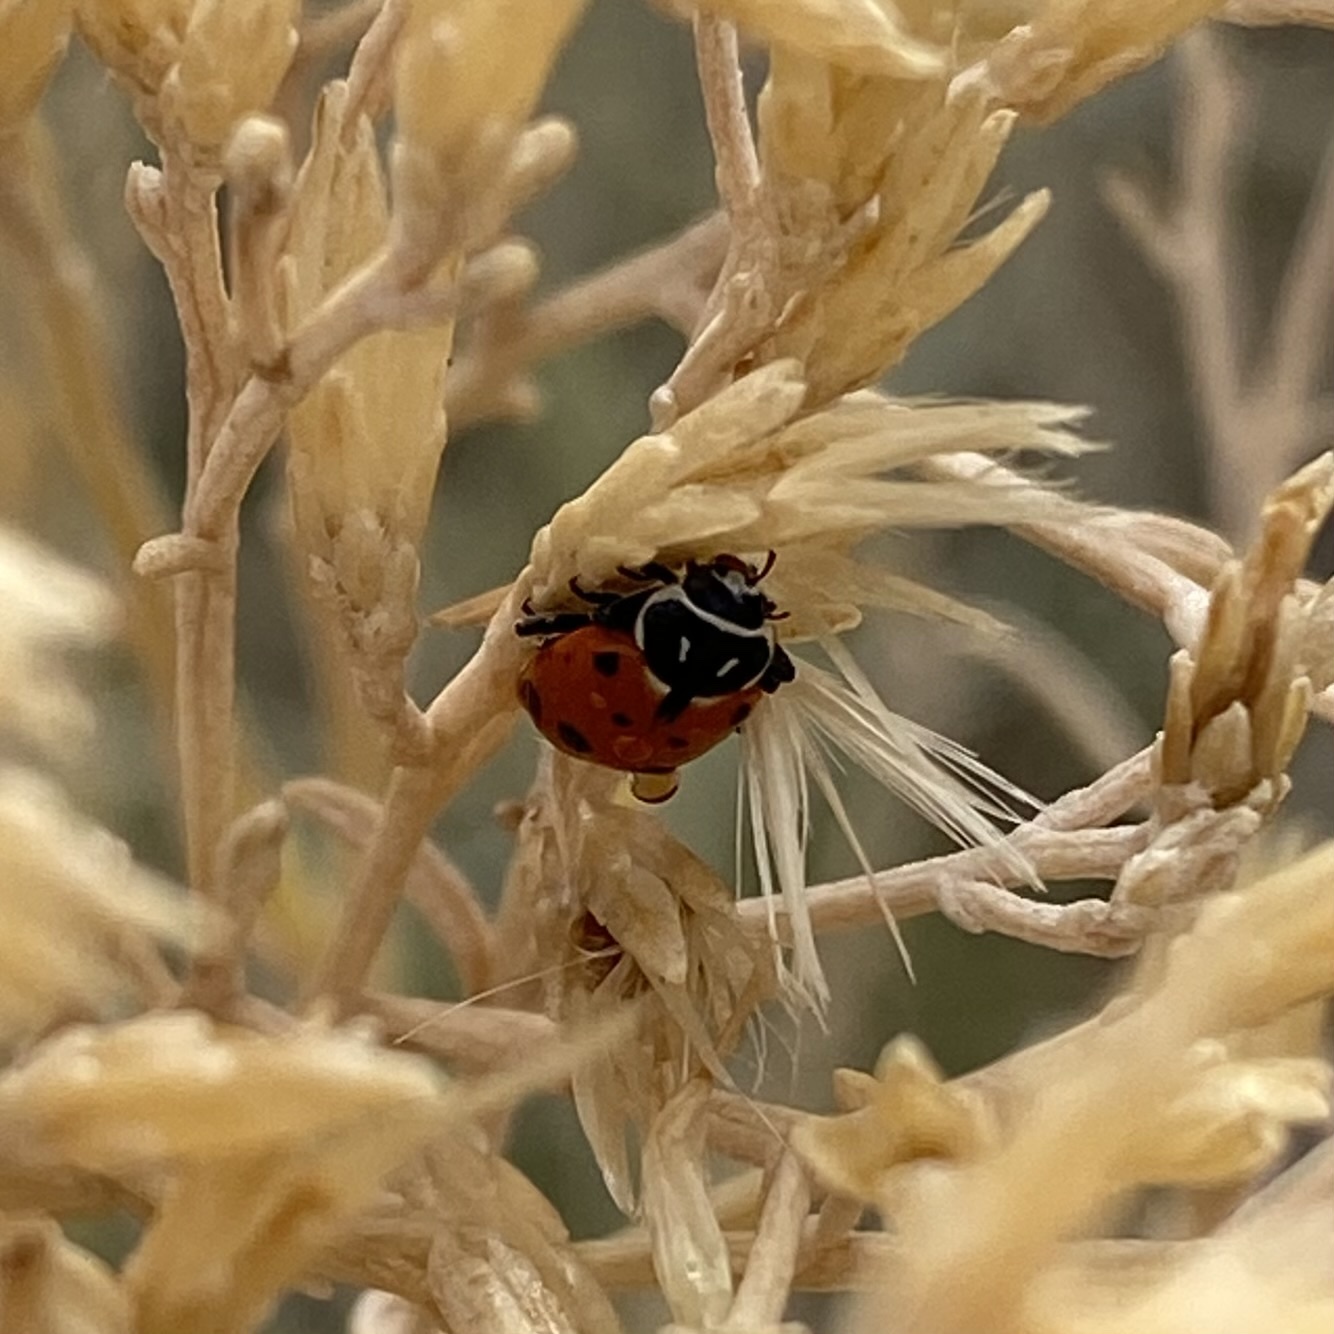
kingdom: Animalia
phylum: Arthropoda
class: Insecta
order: Coleoptera
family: Coccinellidae
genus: Hippodamia
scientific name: Hippodamia convergens
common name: Convergent lady beetle
